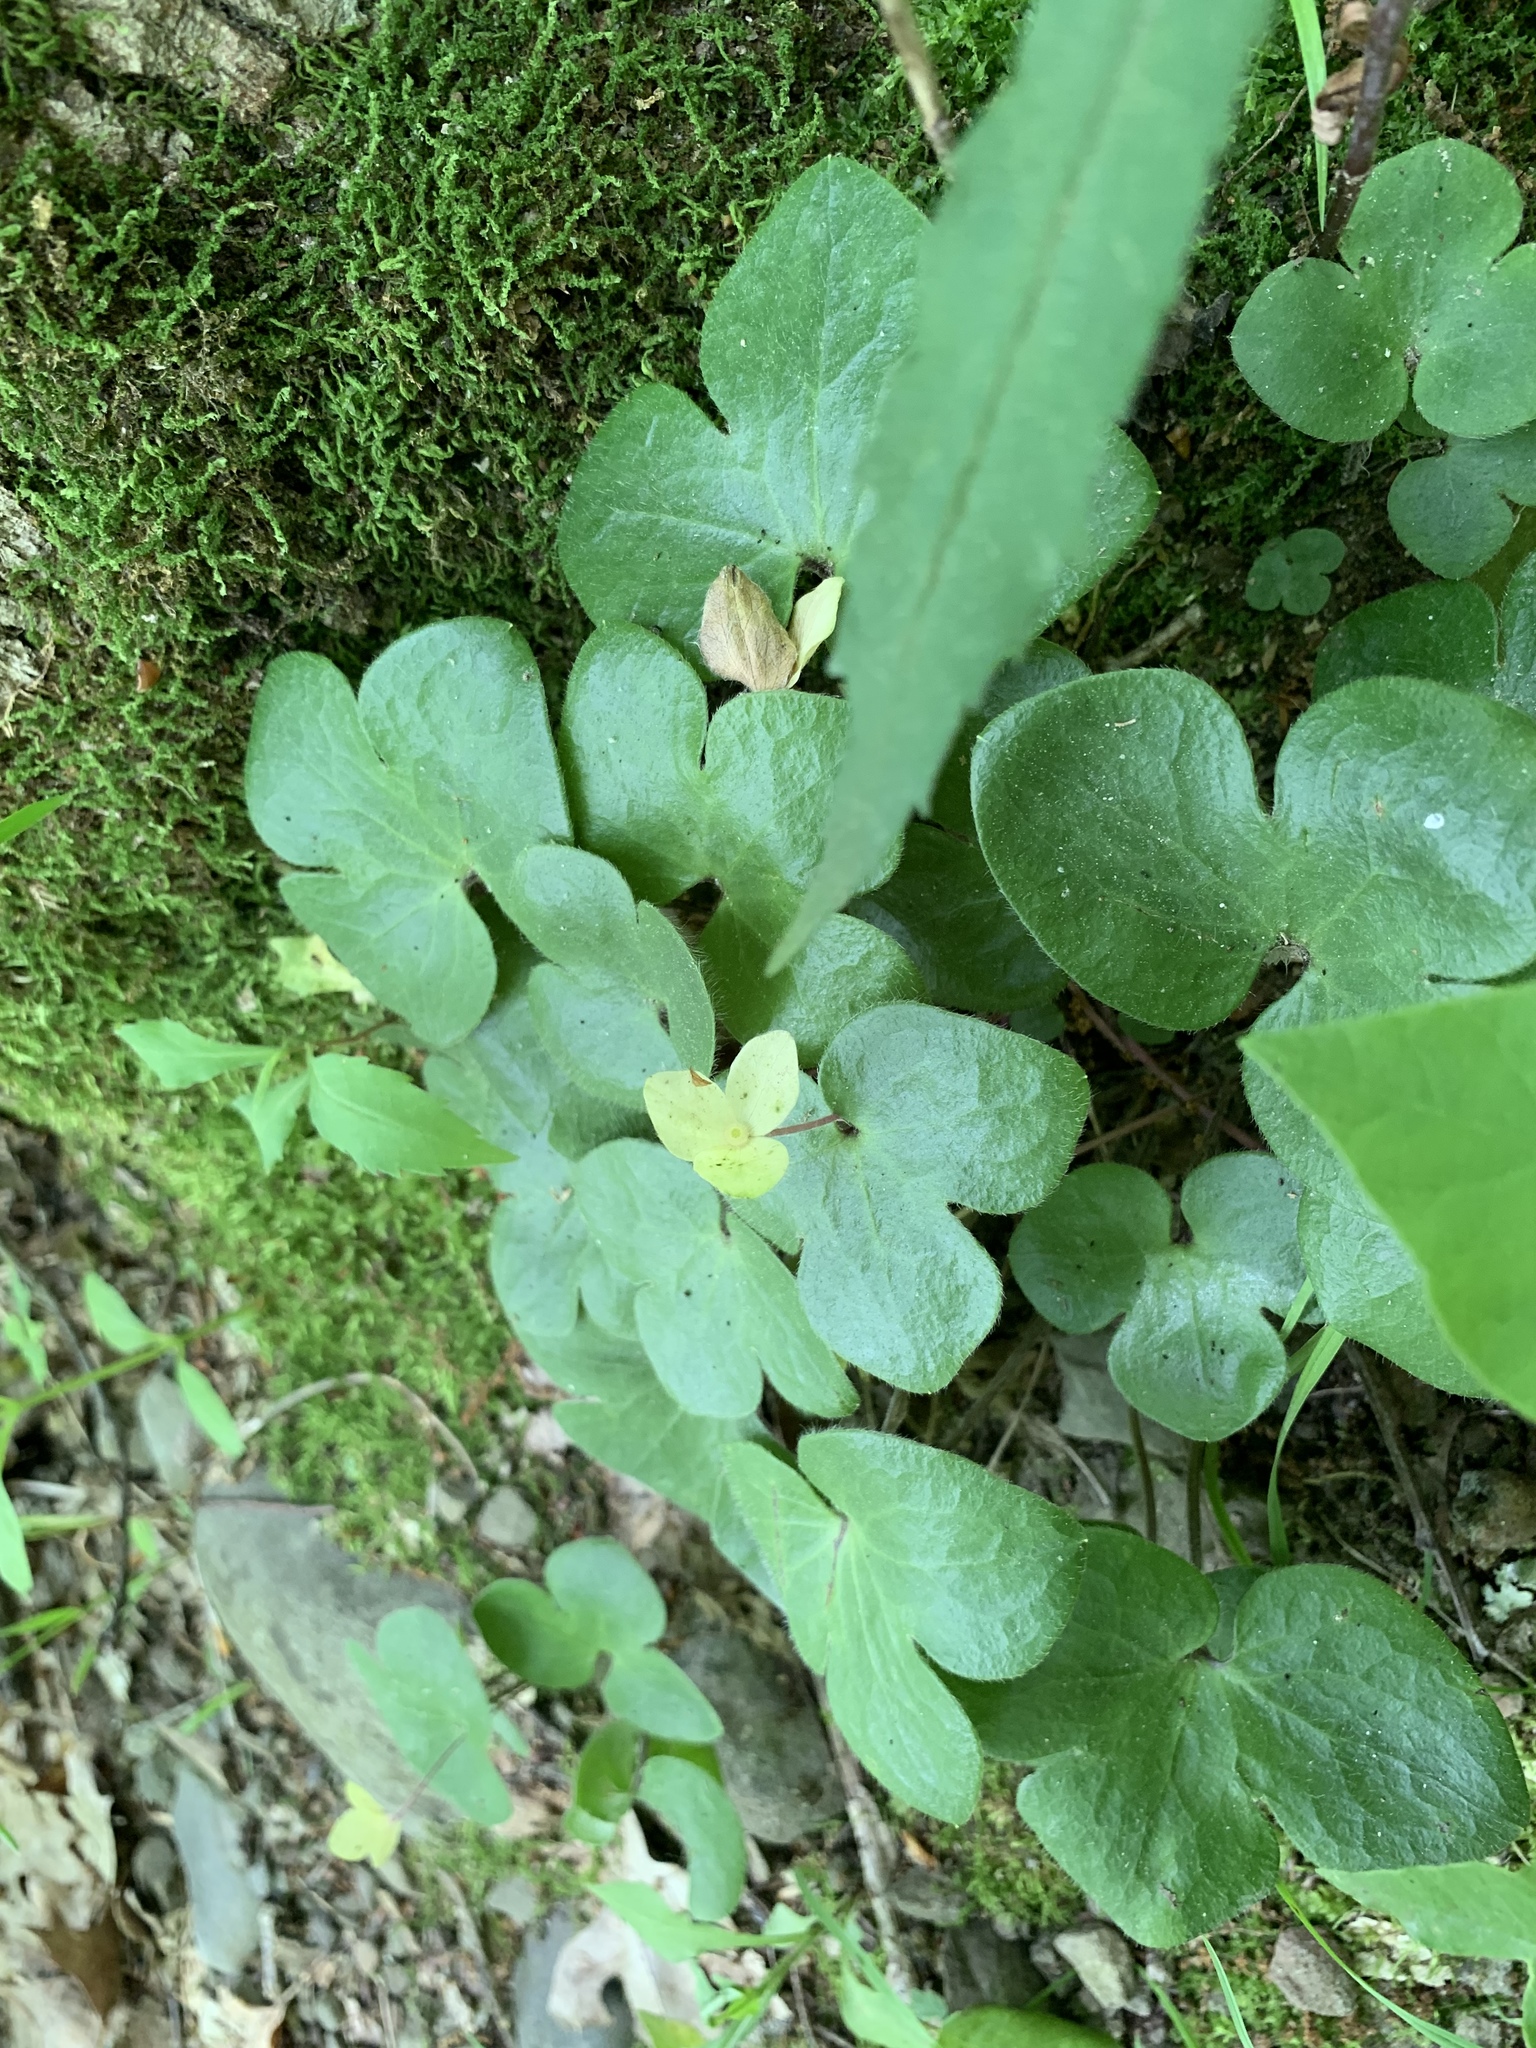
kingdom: Plantae
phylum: Tracheophyta
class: Magnoliopsida
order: Ranunculales
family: Ranunculaceae
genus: Hepatica
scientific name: Hepatica americana
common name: American hepatica
